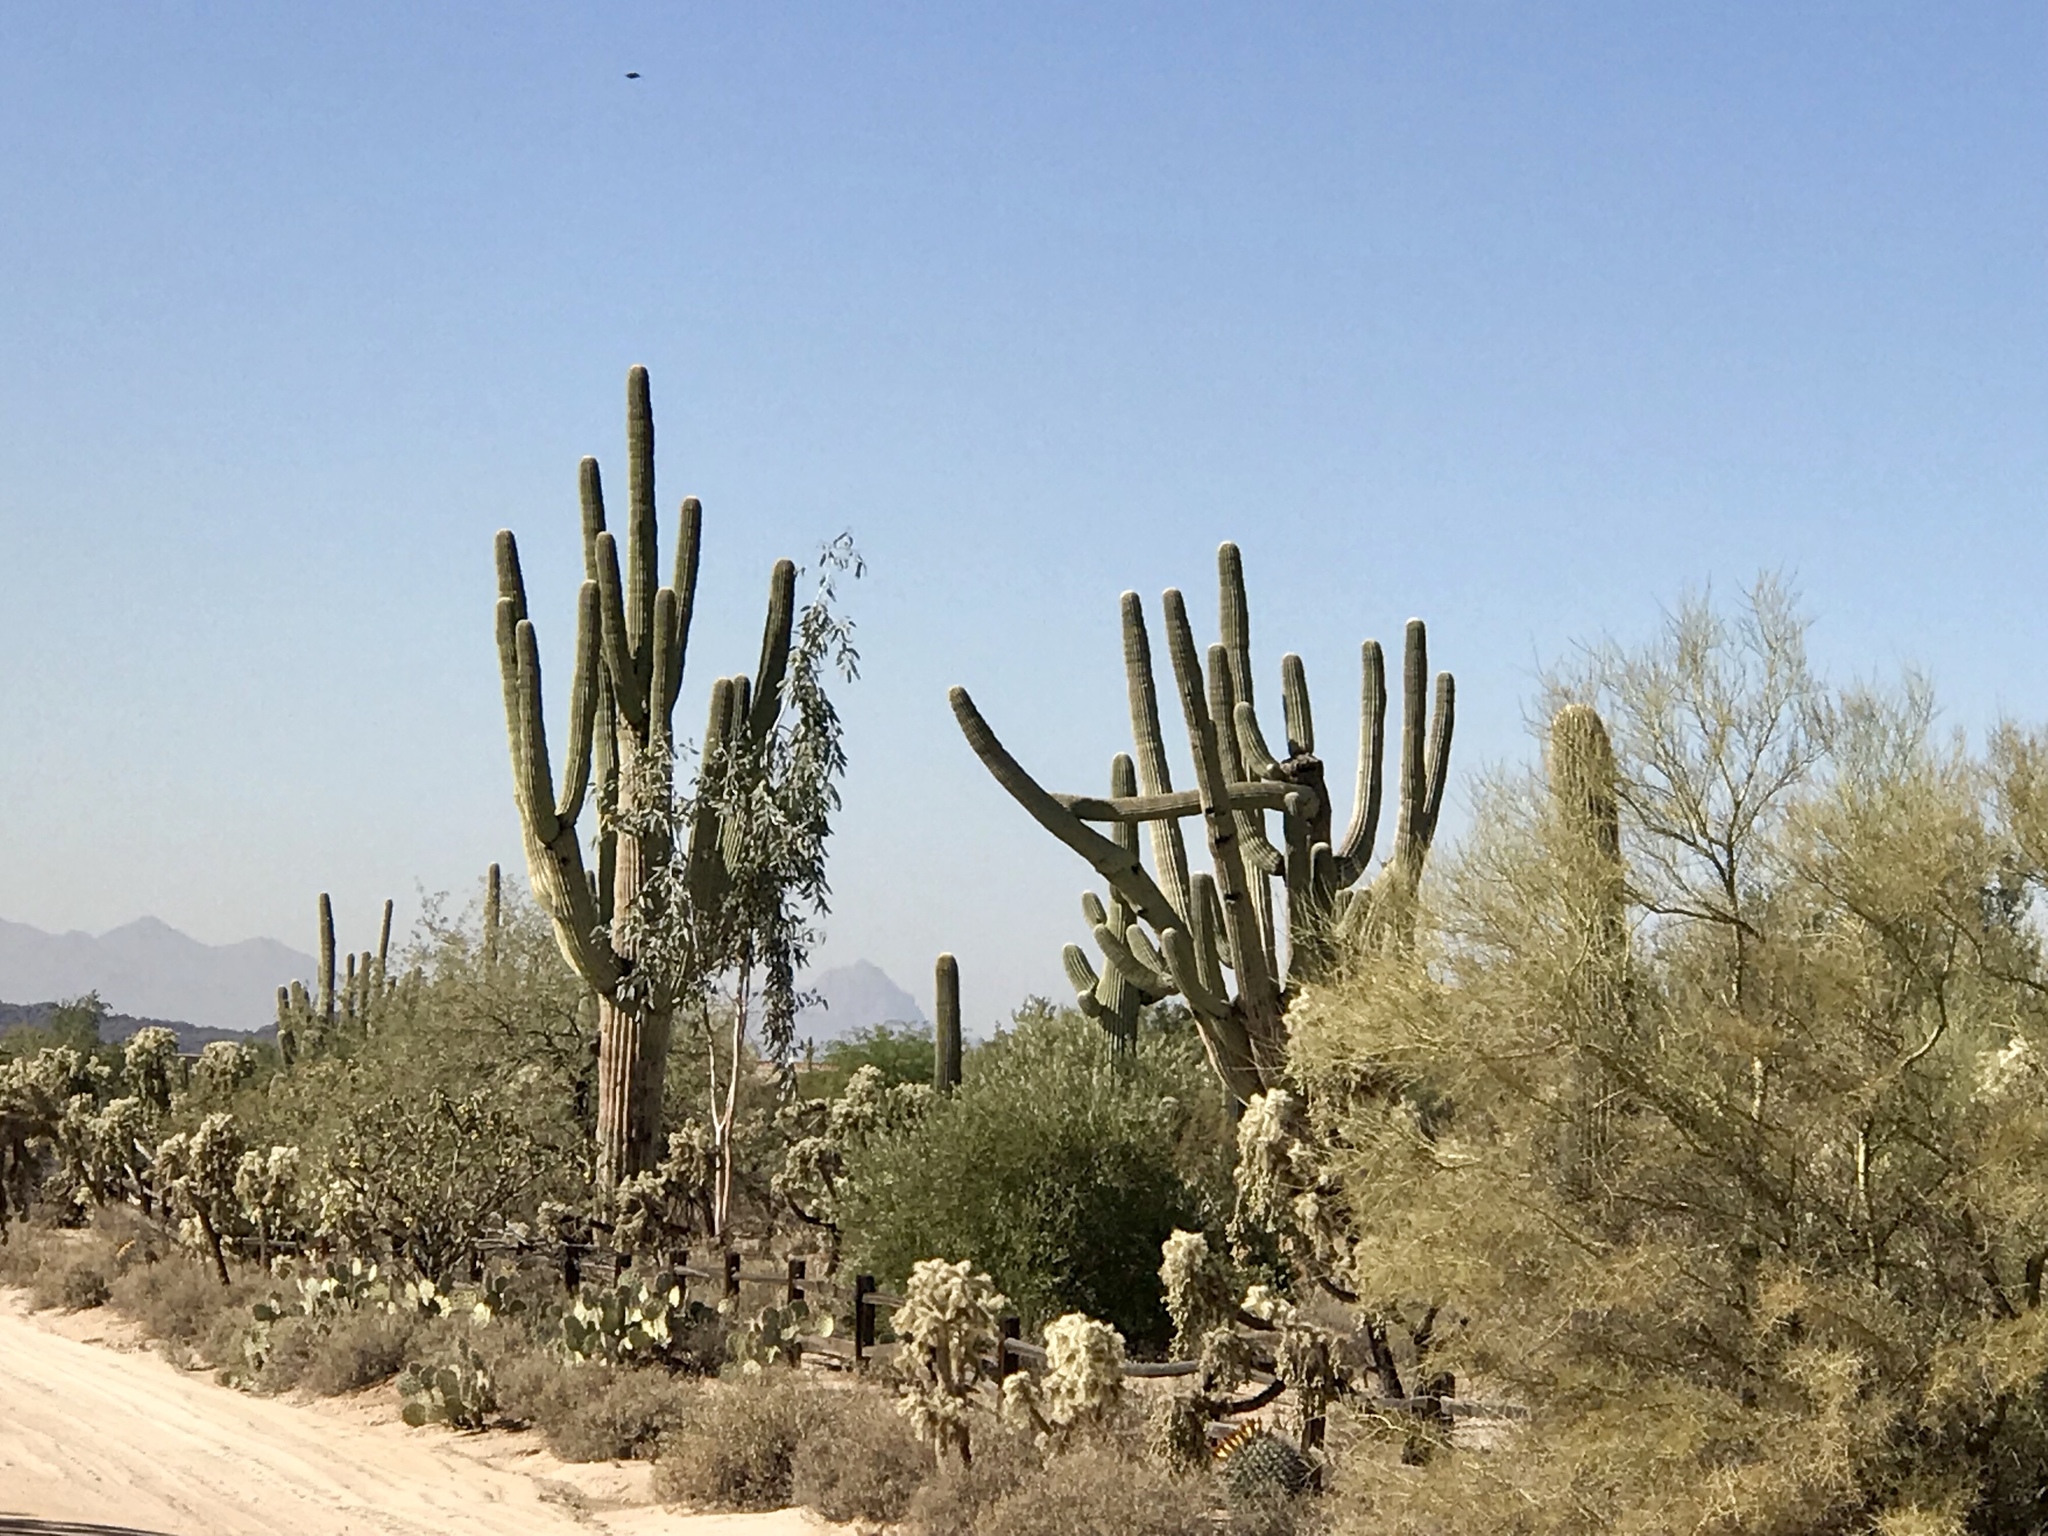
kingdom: Plantae
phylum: Tracheophyta
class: Magnoliopsida
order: Caryophyllales
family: Cactaceae
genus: Carnegiea
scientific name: Carnegiea gigantea
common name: Saguaro
